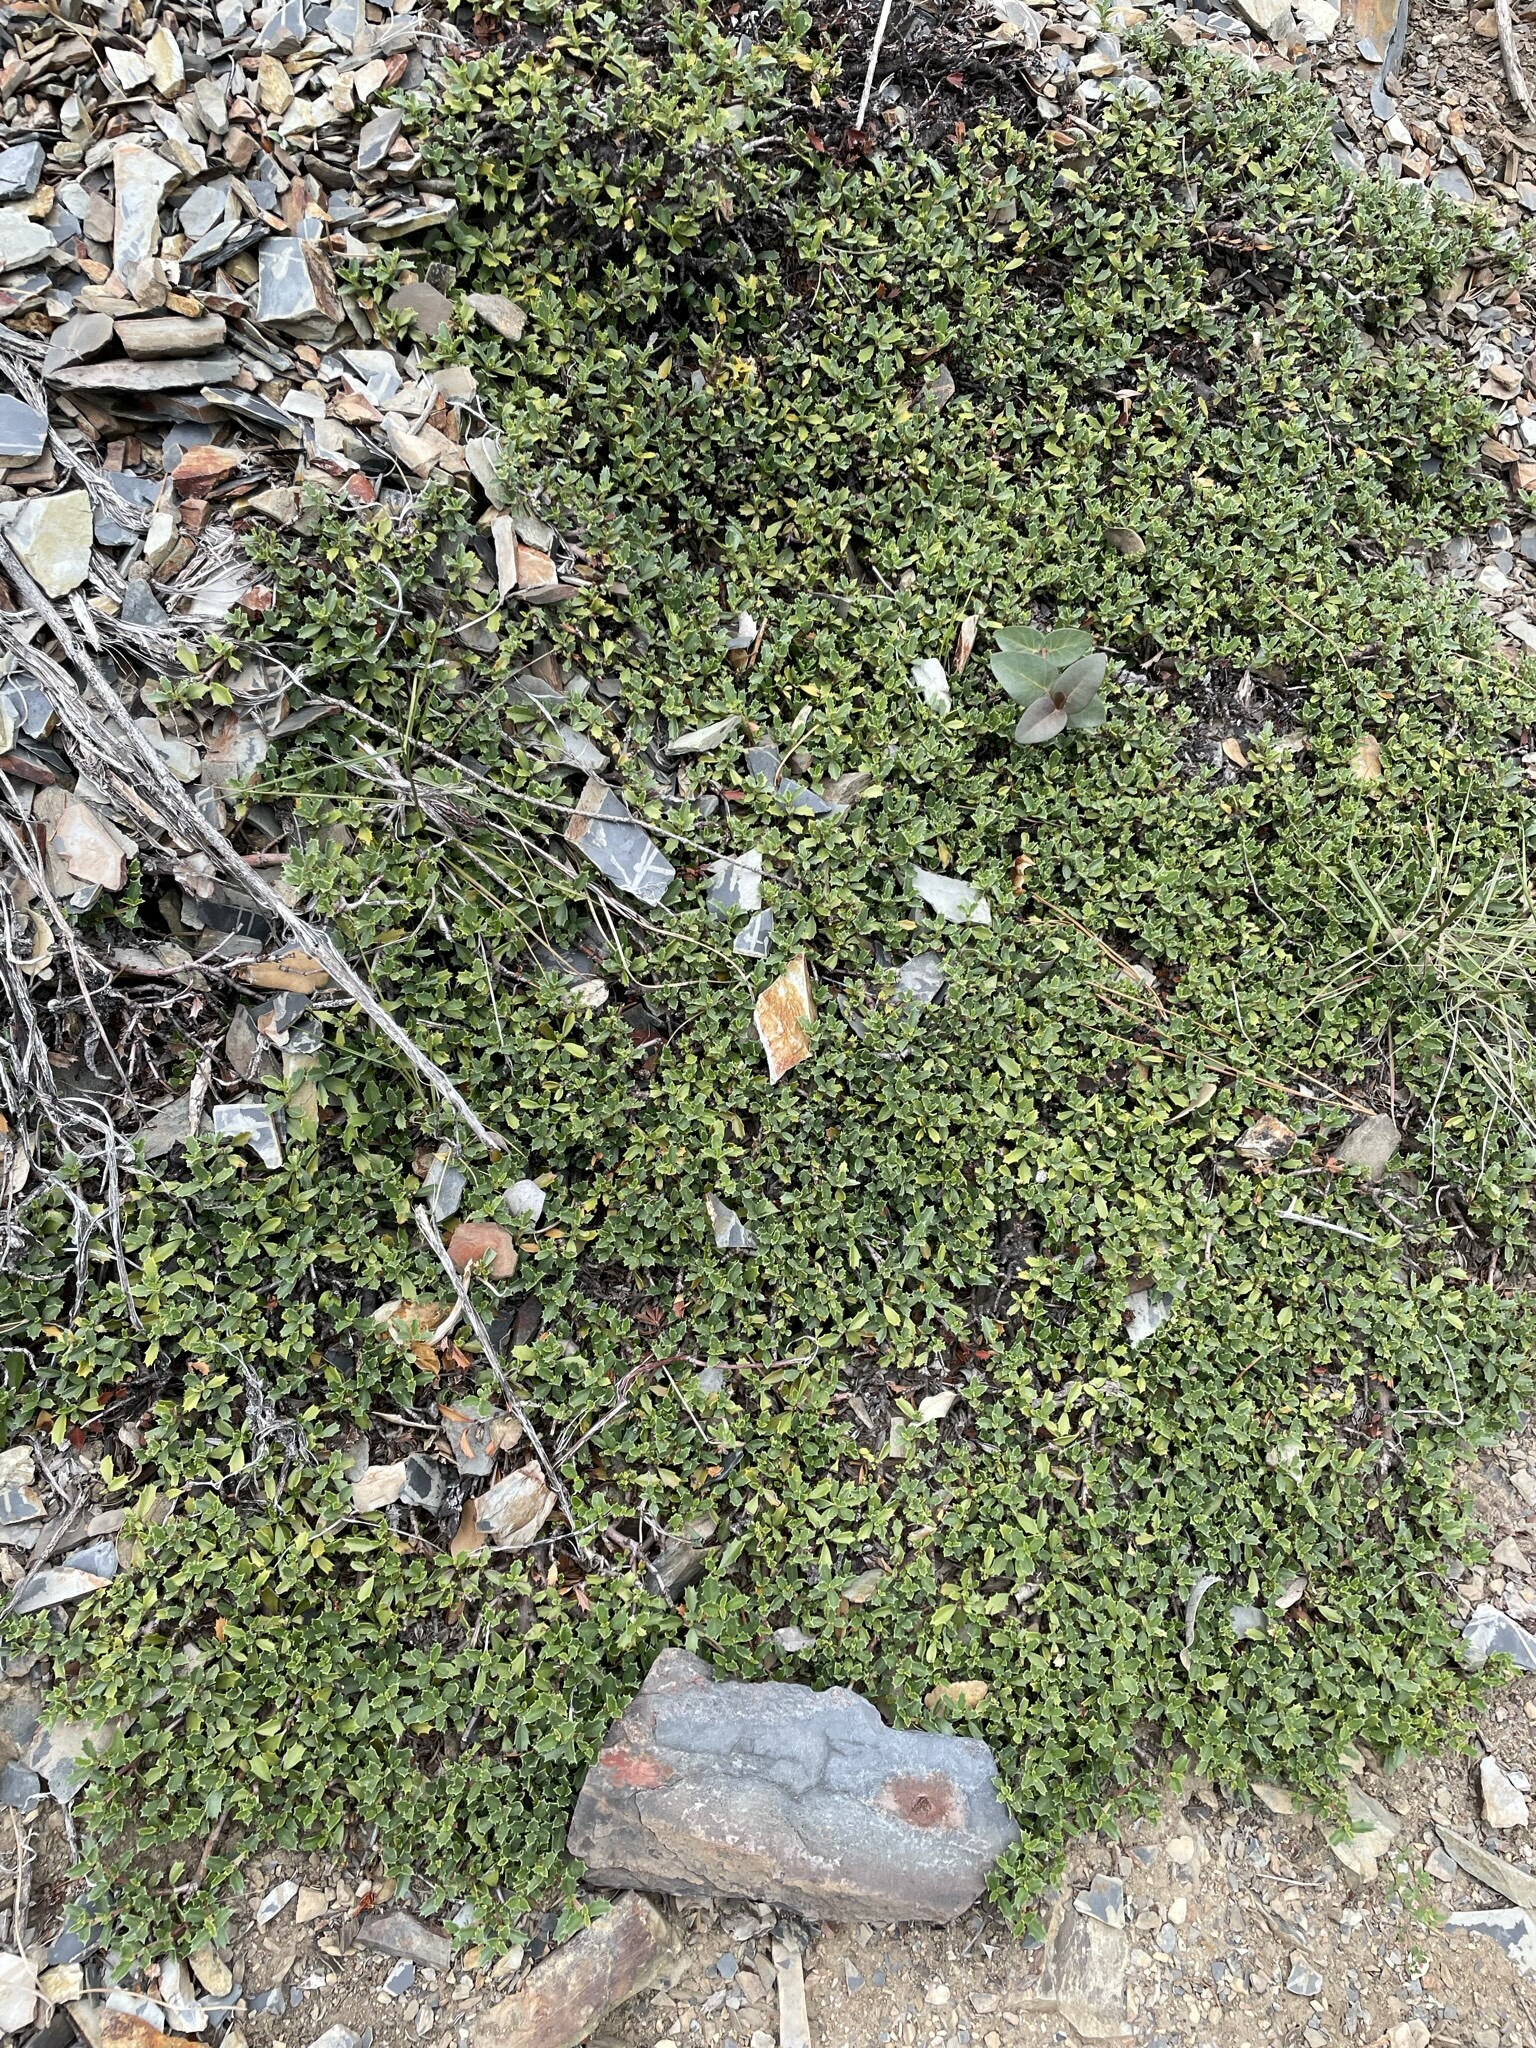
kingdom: Plantae
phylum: Tracheophyta
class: Magnoliopsida
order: Rosales
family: Rhamnaceae
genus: Ceanothus
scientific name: Ceanothus prostratus
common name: Mahala-mat
